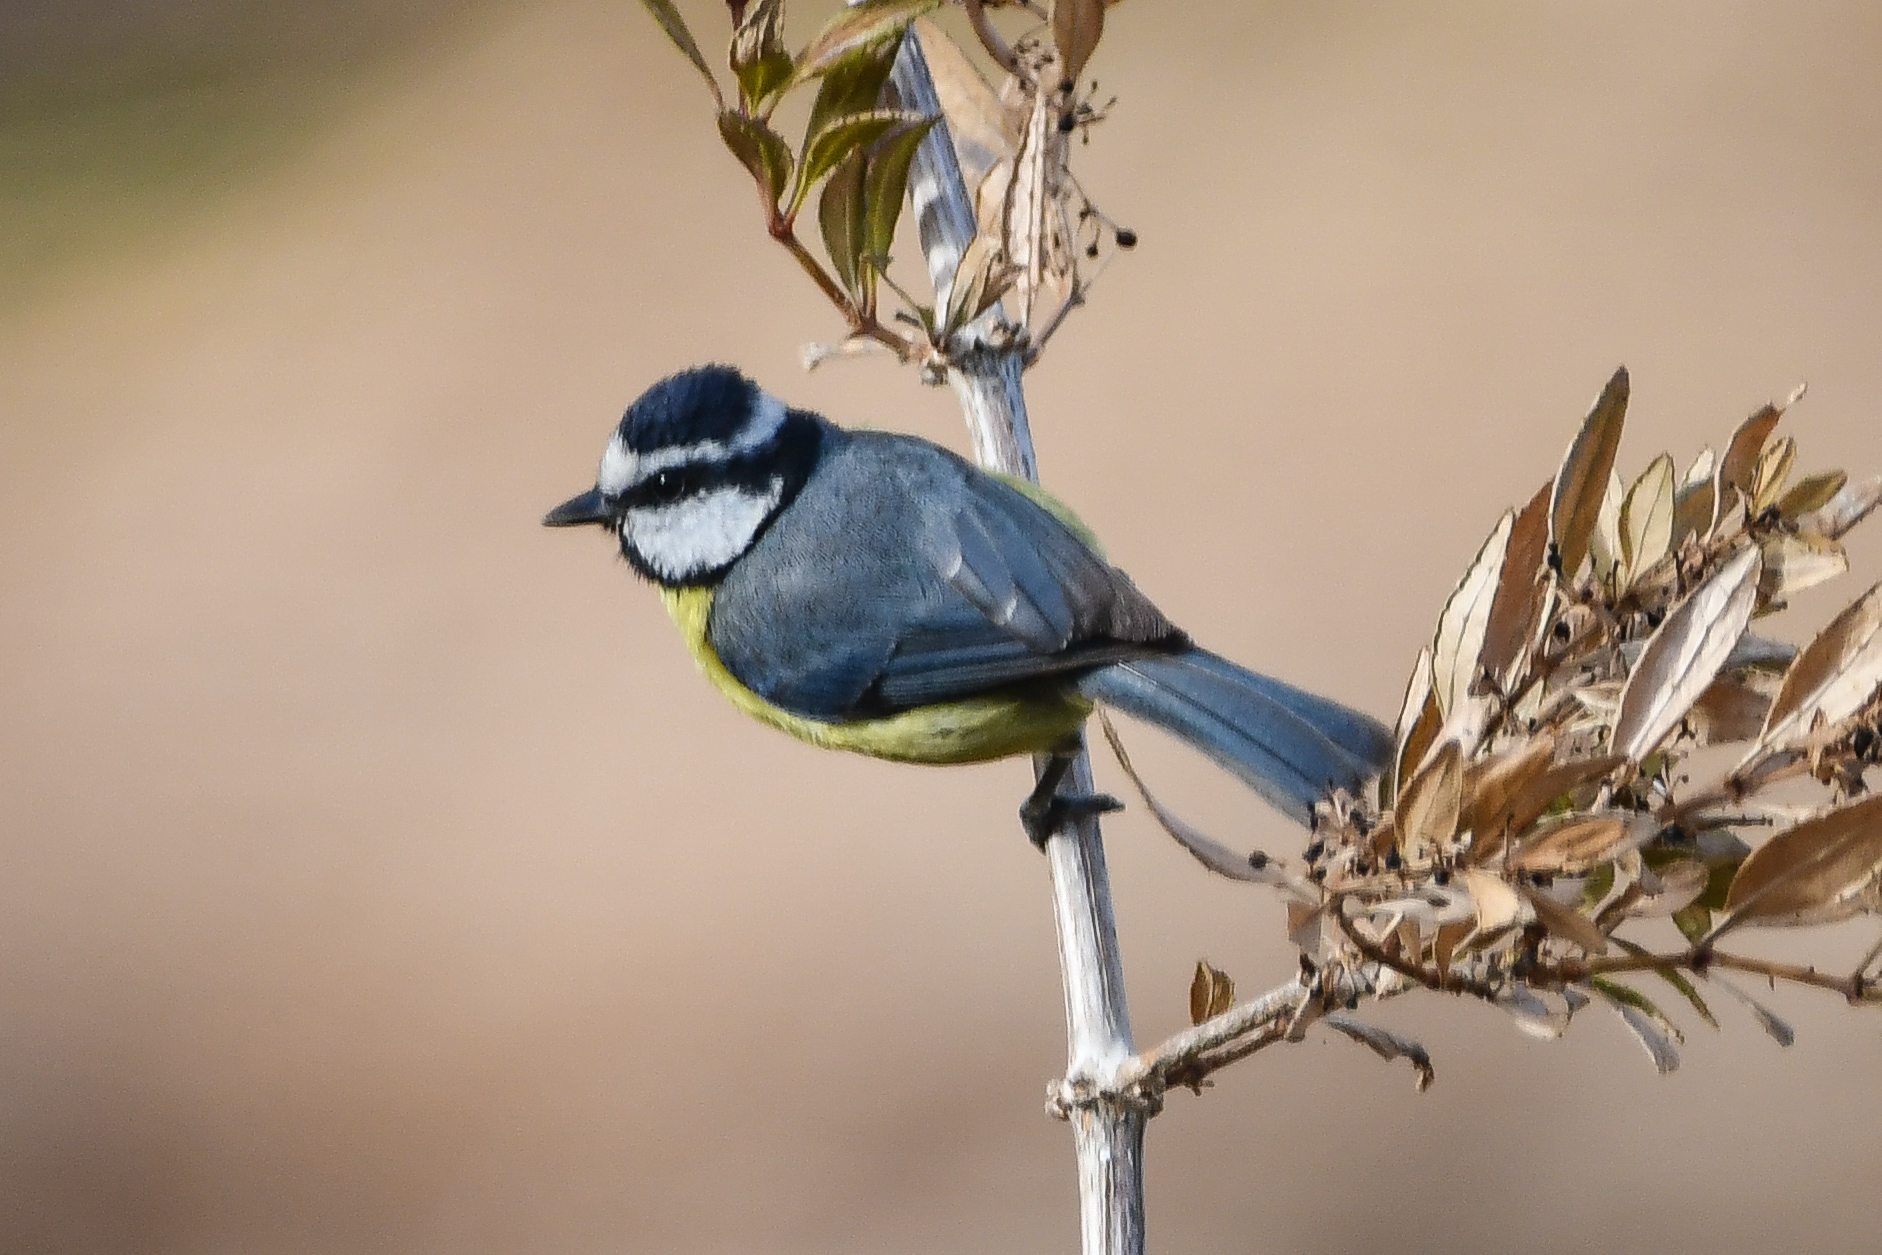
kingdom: Animalia
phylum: Chordata
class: Aves
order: Passeriformes
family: Paridae
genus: Cyanistes
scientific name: Cyanistes teneriffae
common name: African blue tit
